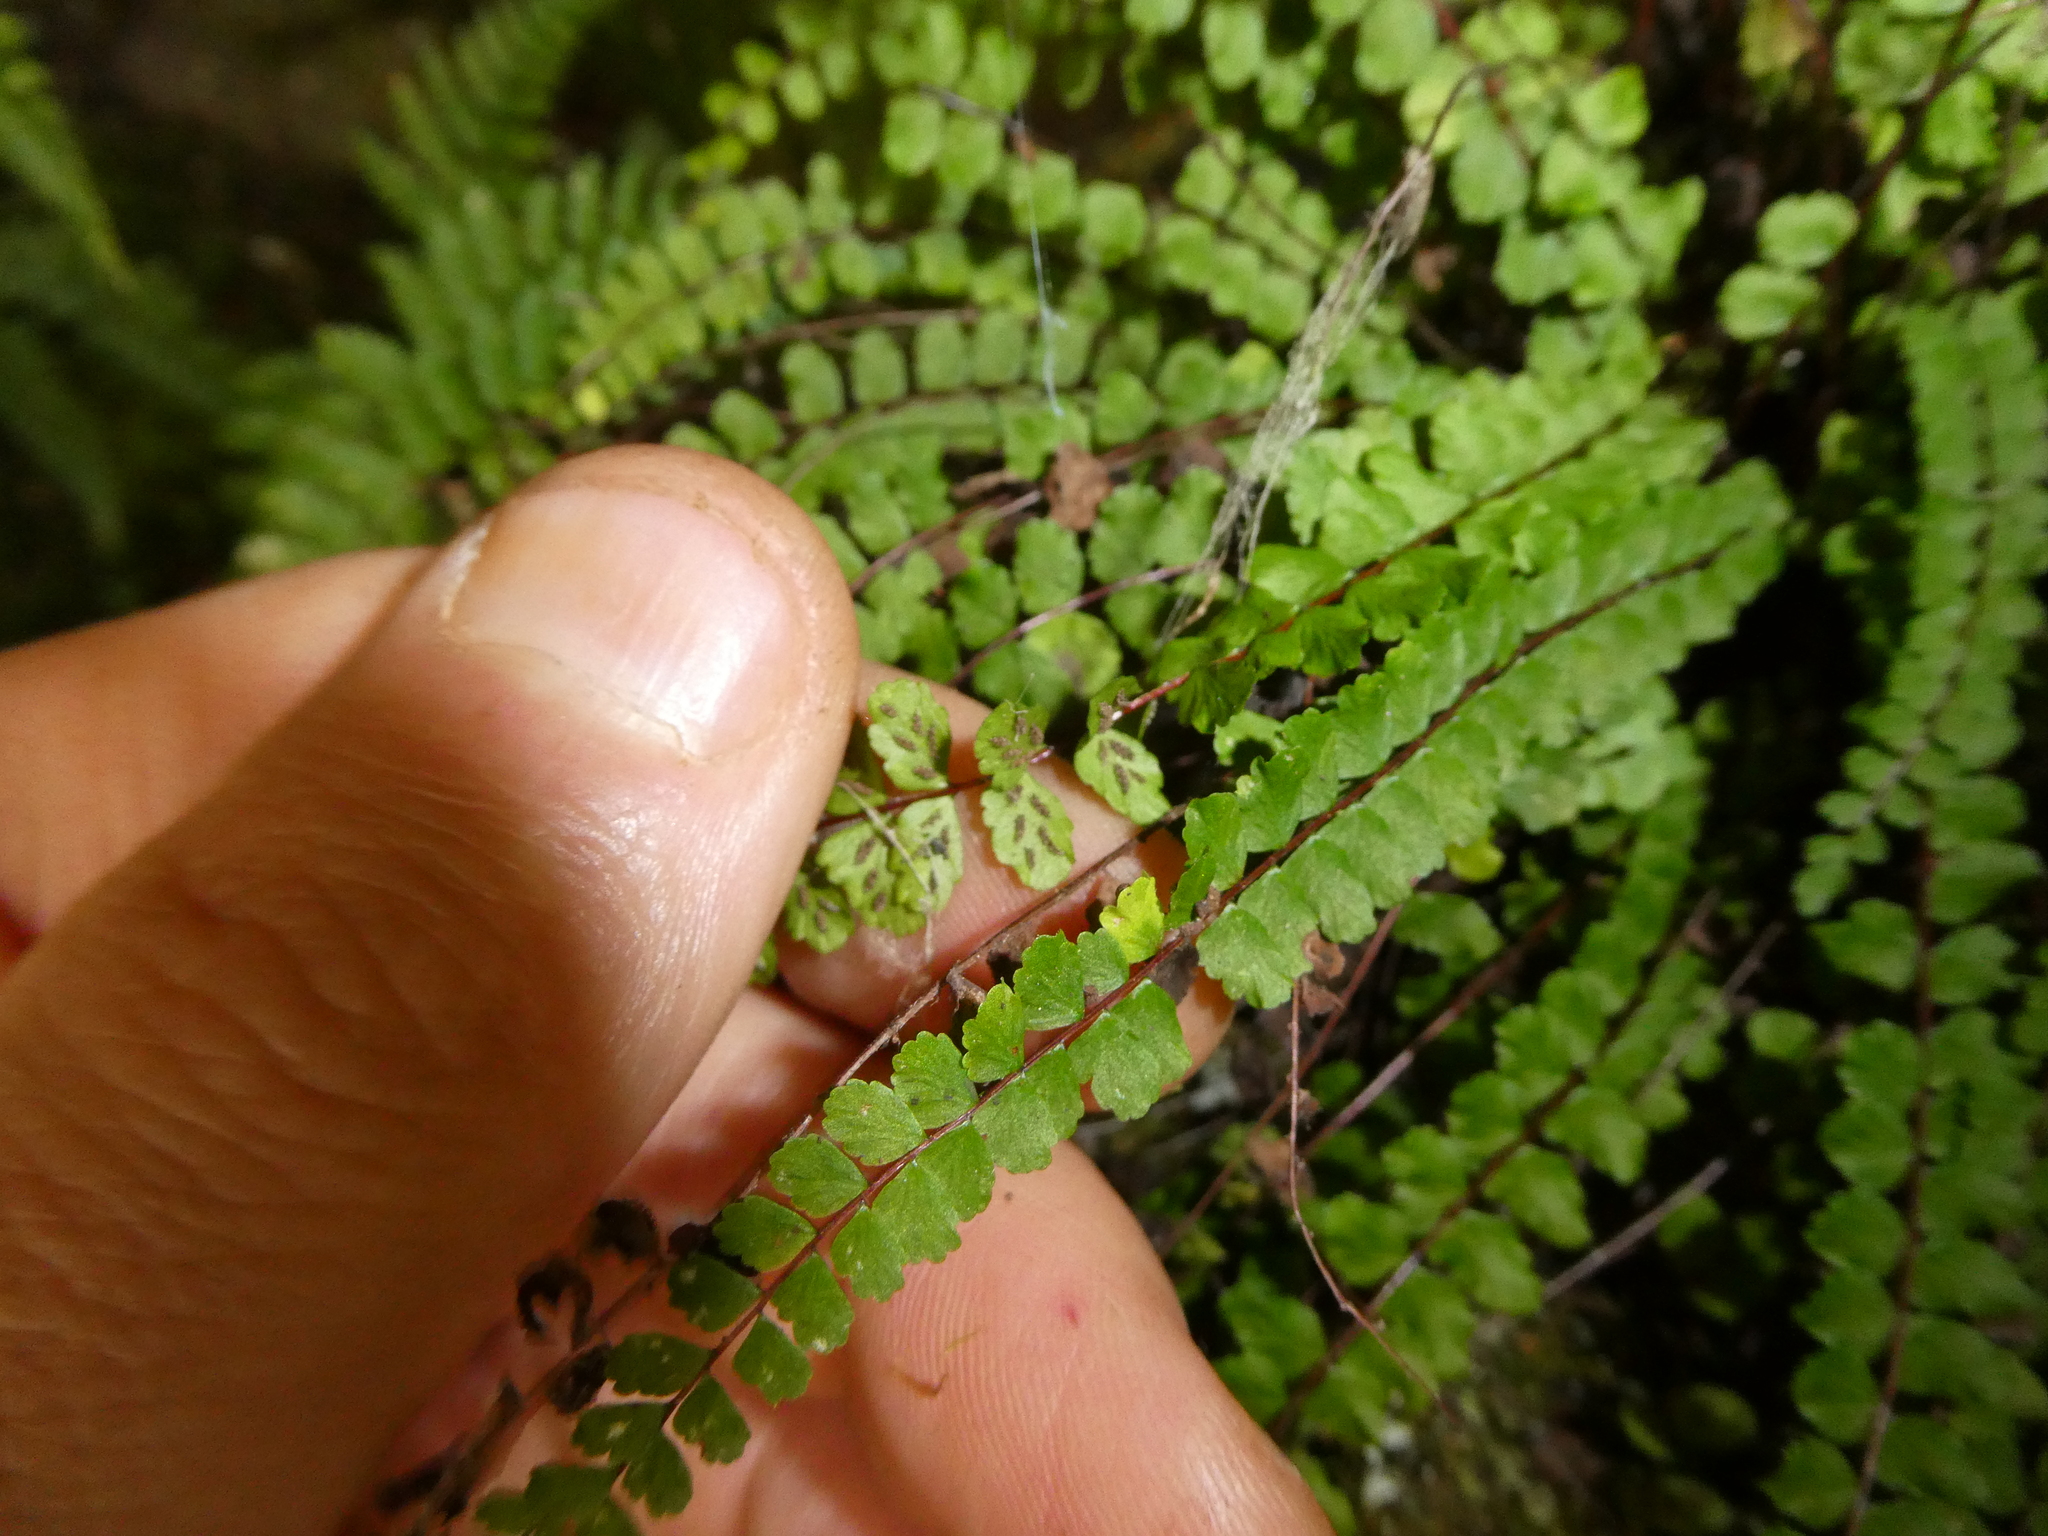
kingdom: Plantae
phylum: Tracheophyta
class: Polypodiopsida
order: Polypodiales
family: Aspleniaceae
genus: Asplenium
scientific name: Asplenium trichomanes
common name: Maidenhair spleenwort
